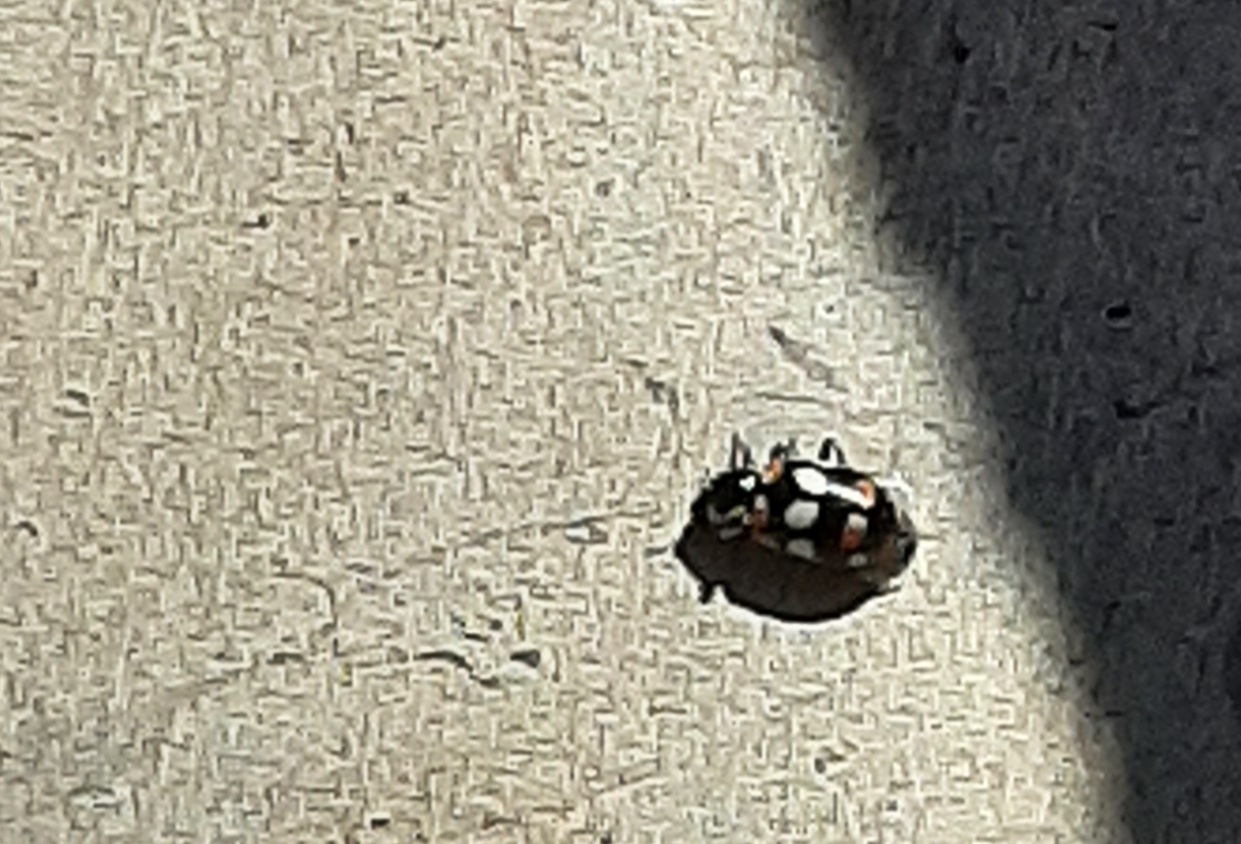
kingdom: Animalia
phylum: Arthropoda
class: Insecta
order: Coleoptera
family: Coccinellidae
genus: Eriopis
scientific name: Eriopis connexa
